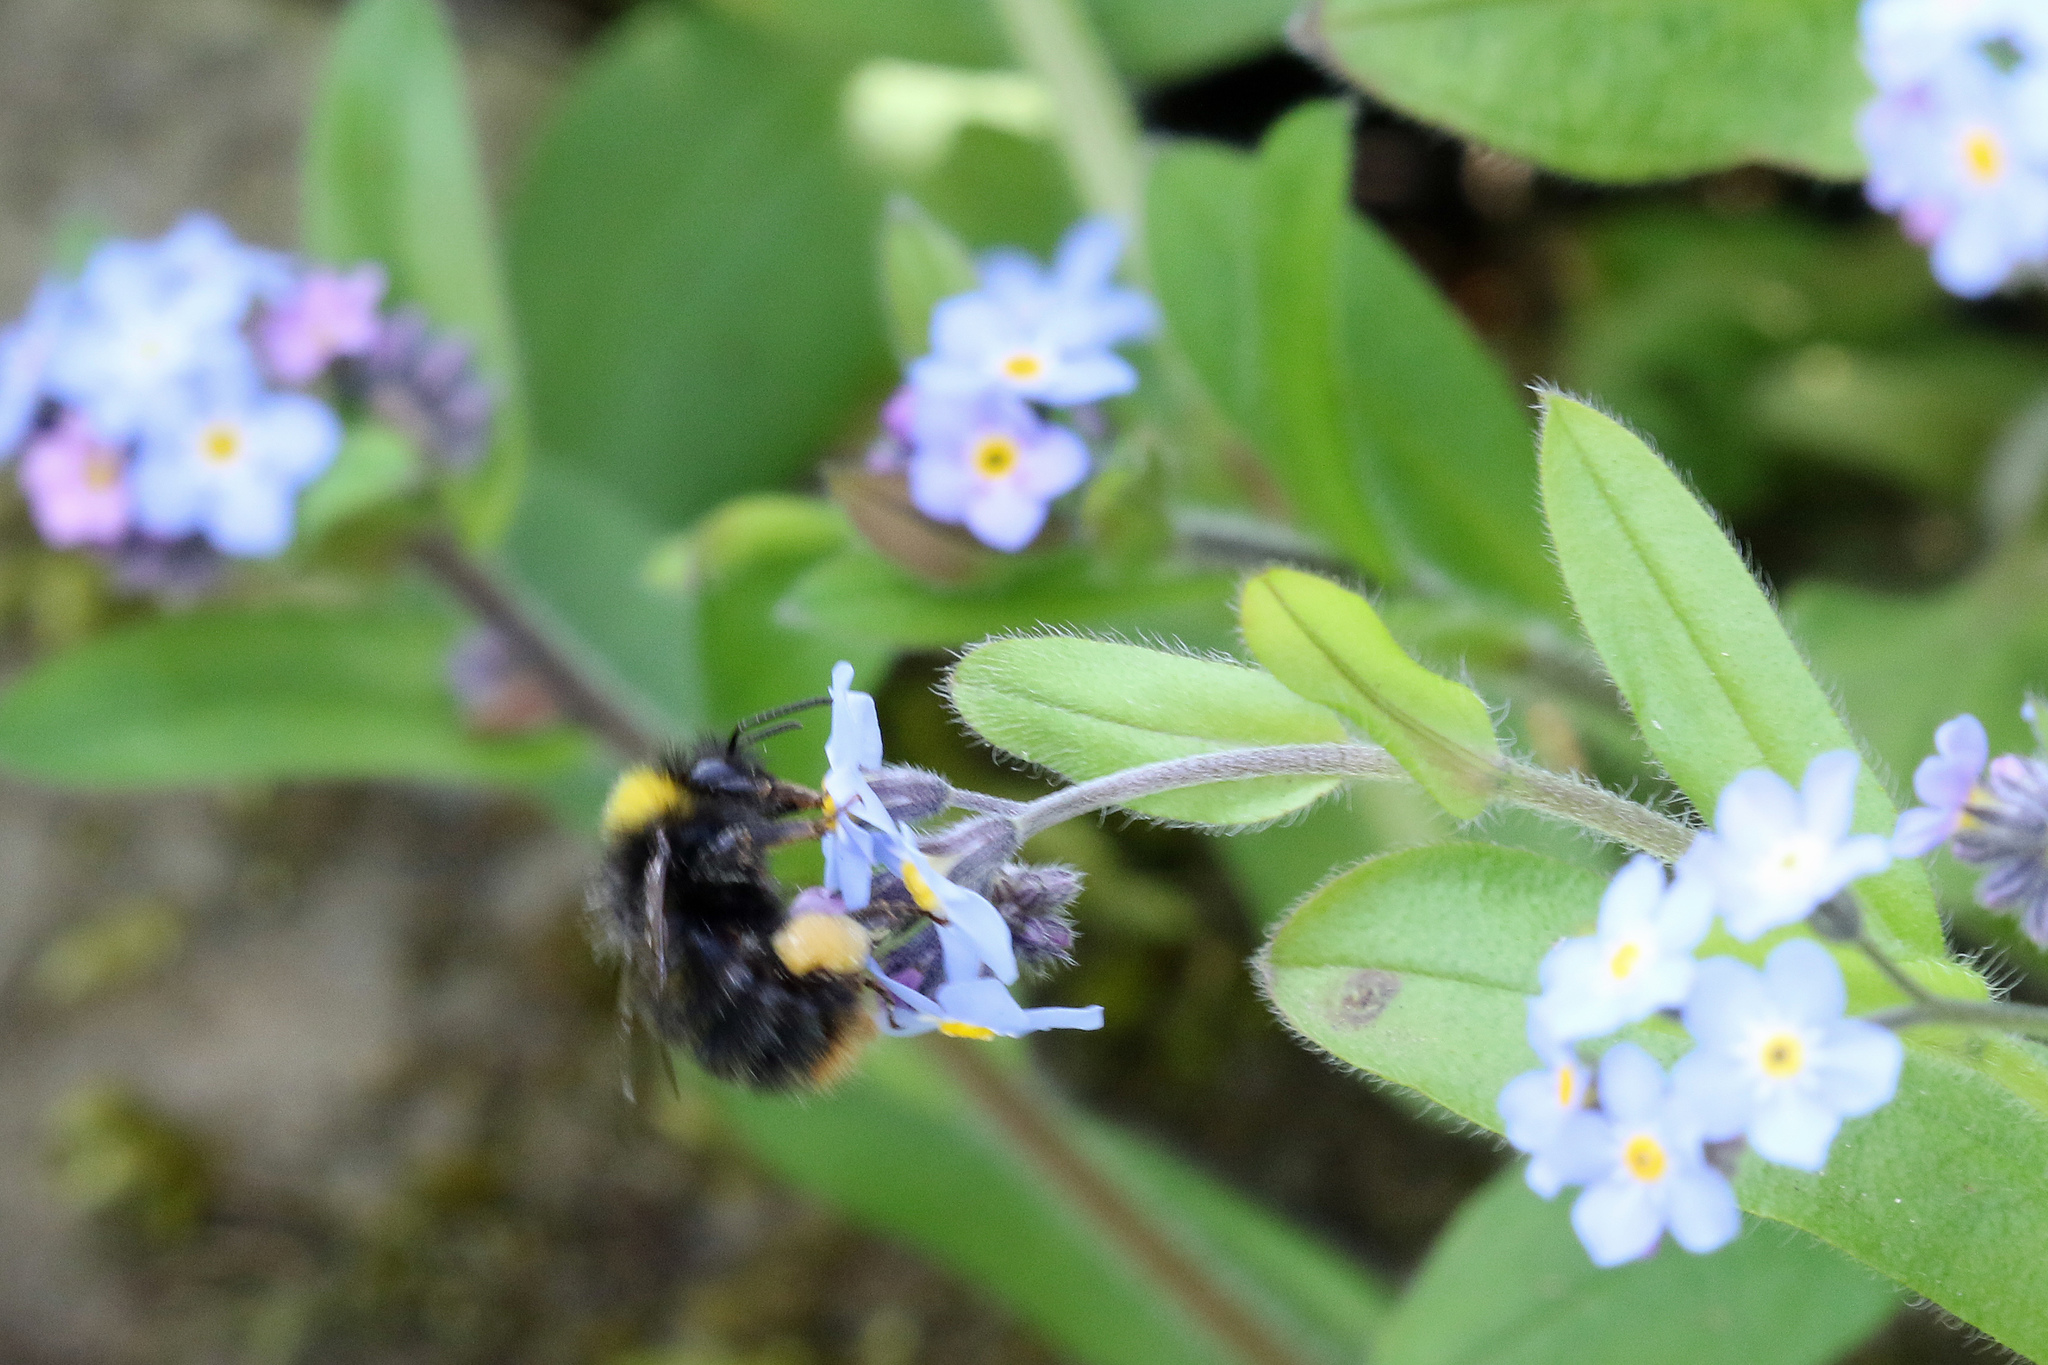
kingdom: Animalia
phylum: Arthropoda
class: Insecta
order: Hymenoptera
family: Apidae
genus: Bombus
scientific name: Bombus pratorum
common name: Early humble-bee
